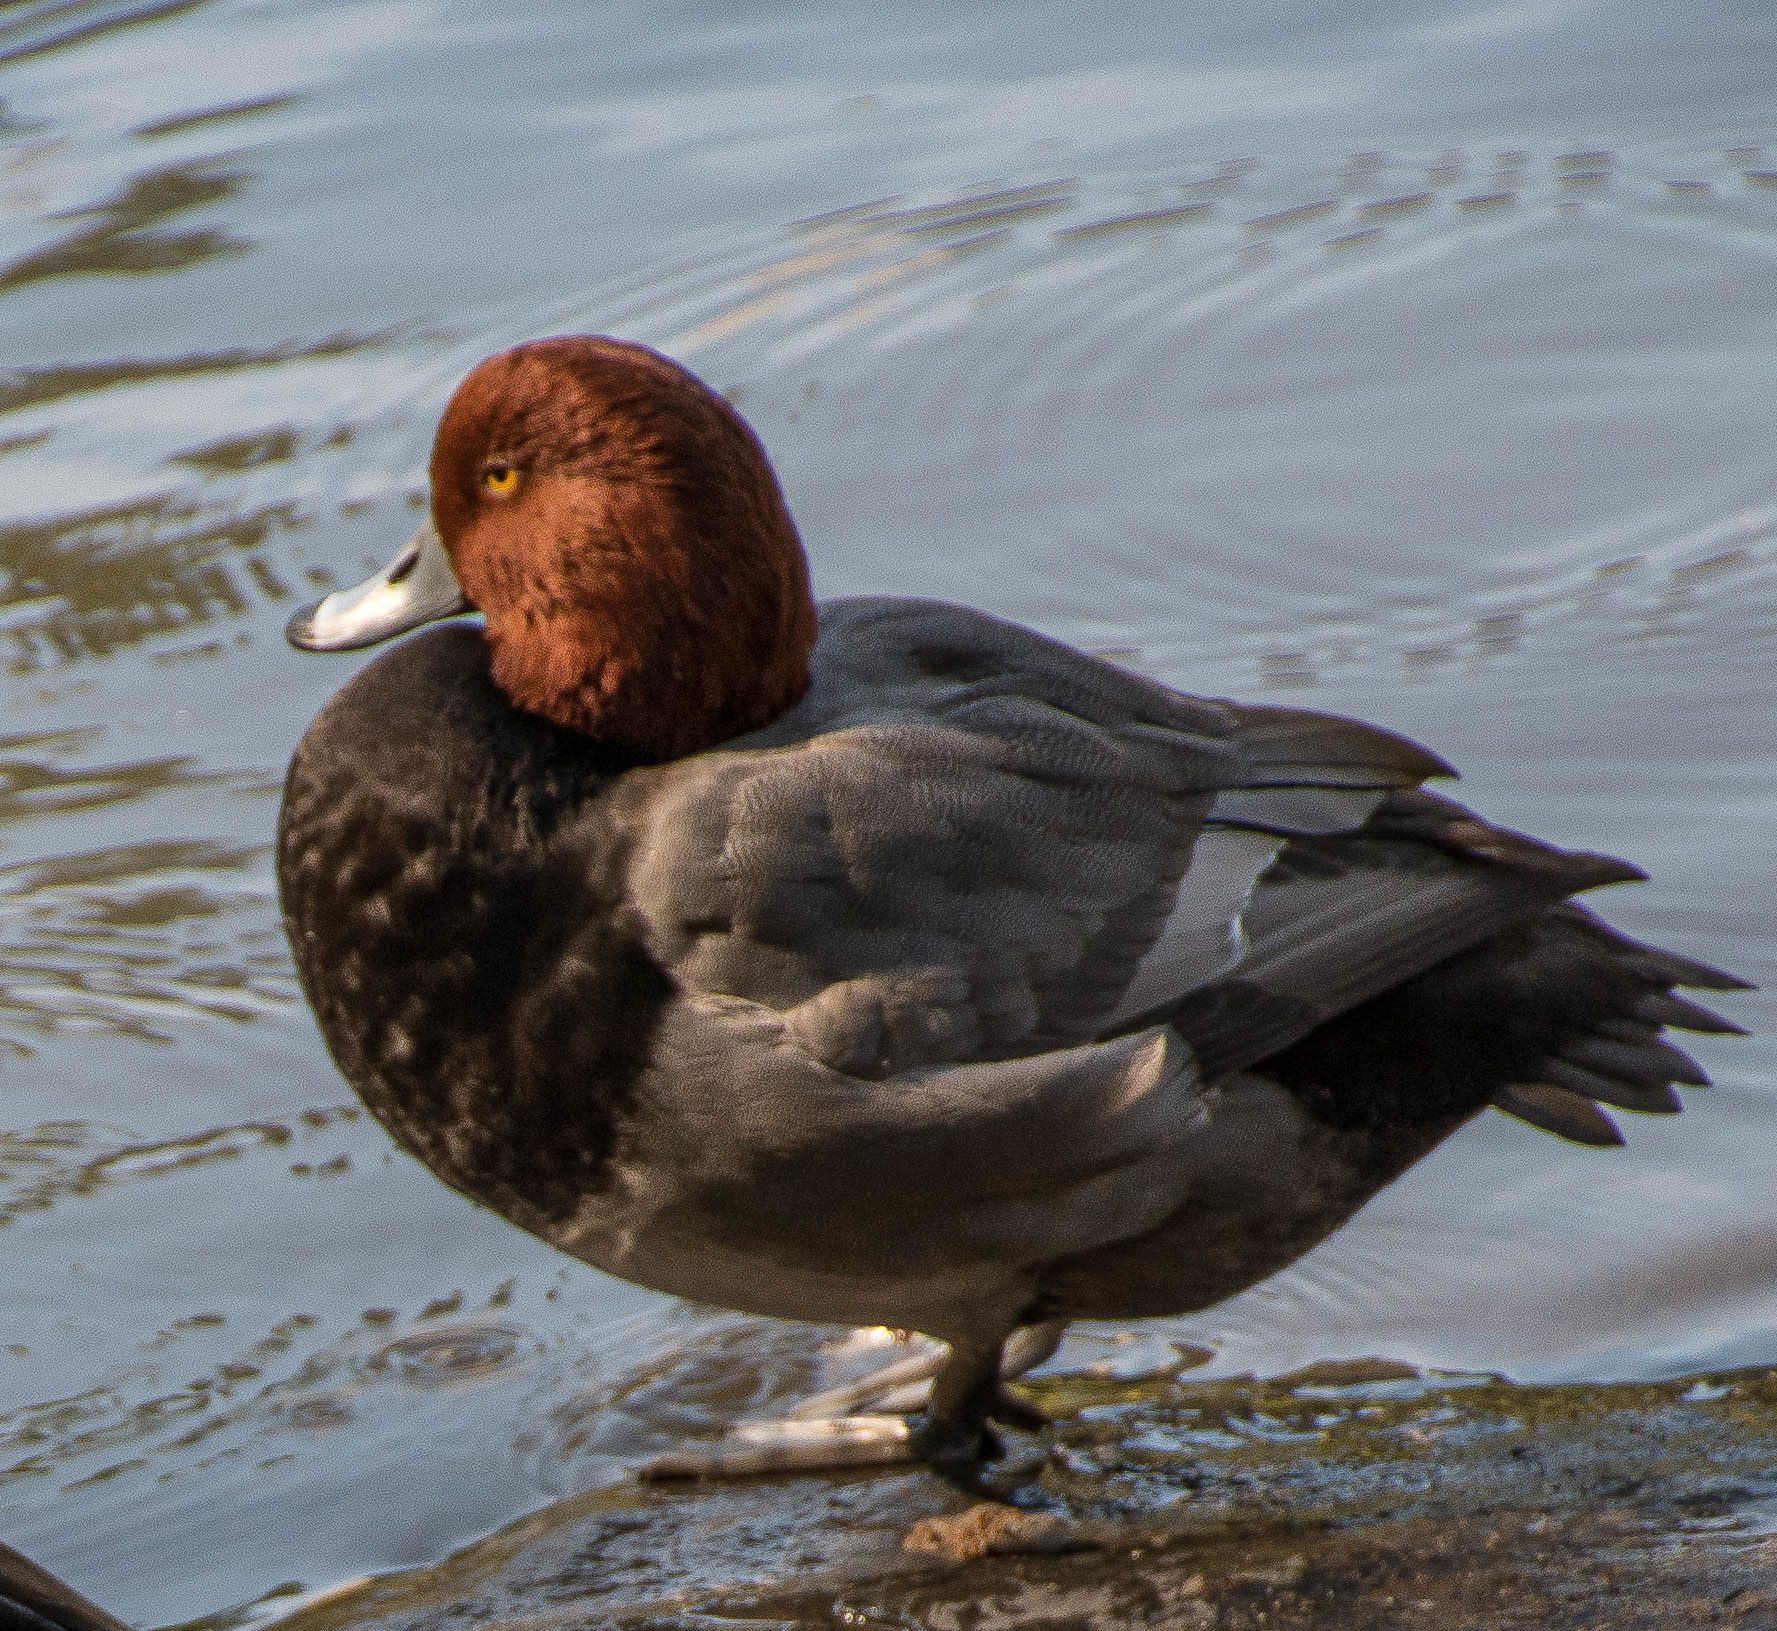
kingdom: Animalia
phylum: Chordata
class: Aves
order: Anseriformes
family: Anatidae
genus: Aythya
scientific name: Aythya americana
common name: Redhead
